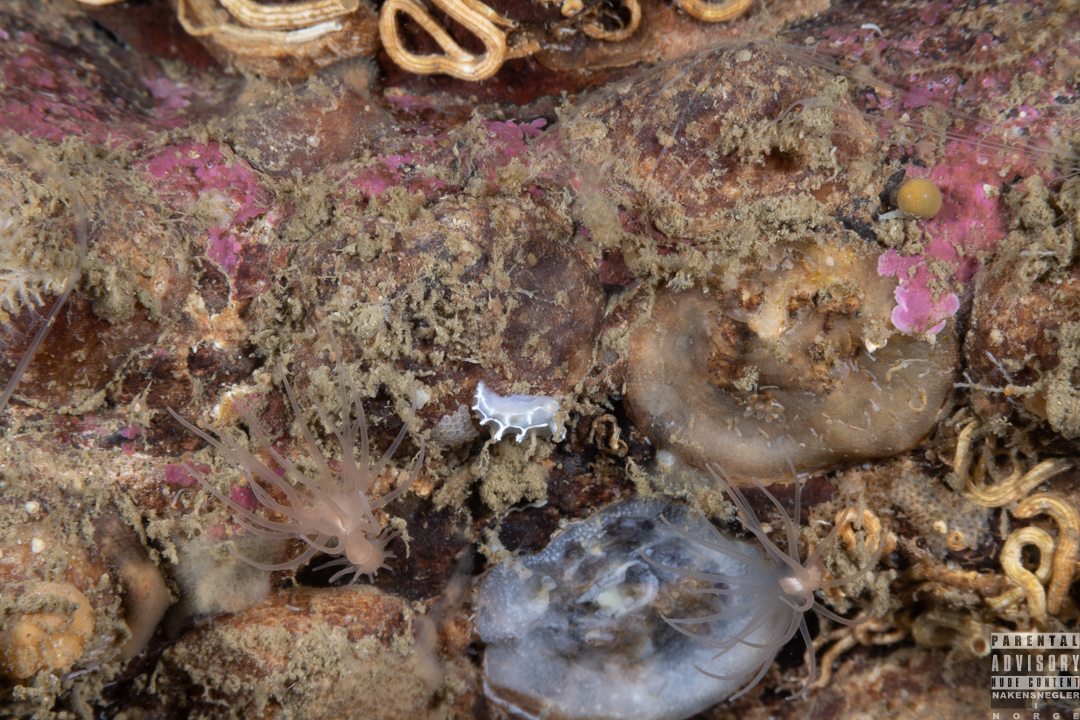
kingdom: Animalia
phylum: Mollusca
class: Gastropoda
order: Nudibranchia
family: Tritoniidae
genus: Duvaucelia
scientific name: Duvaucelia lineata
